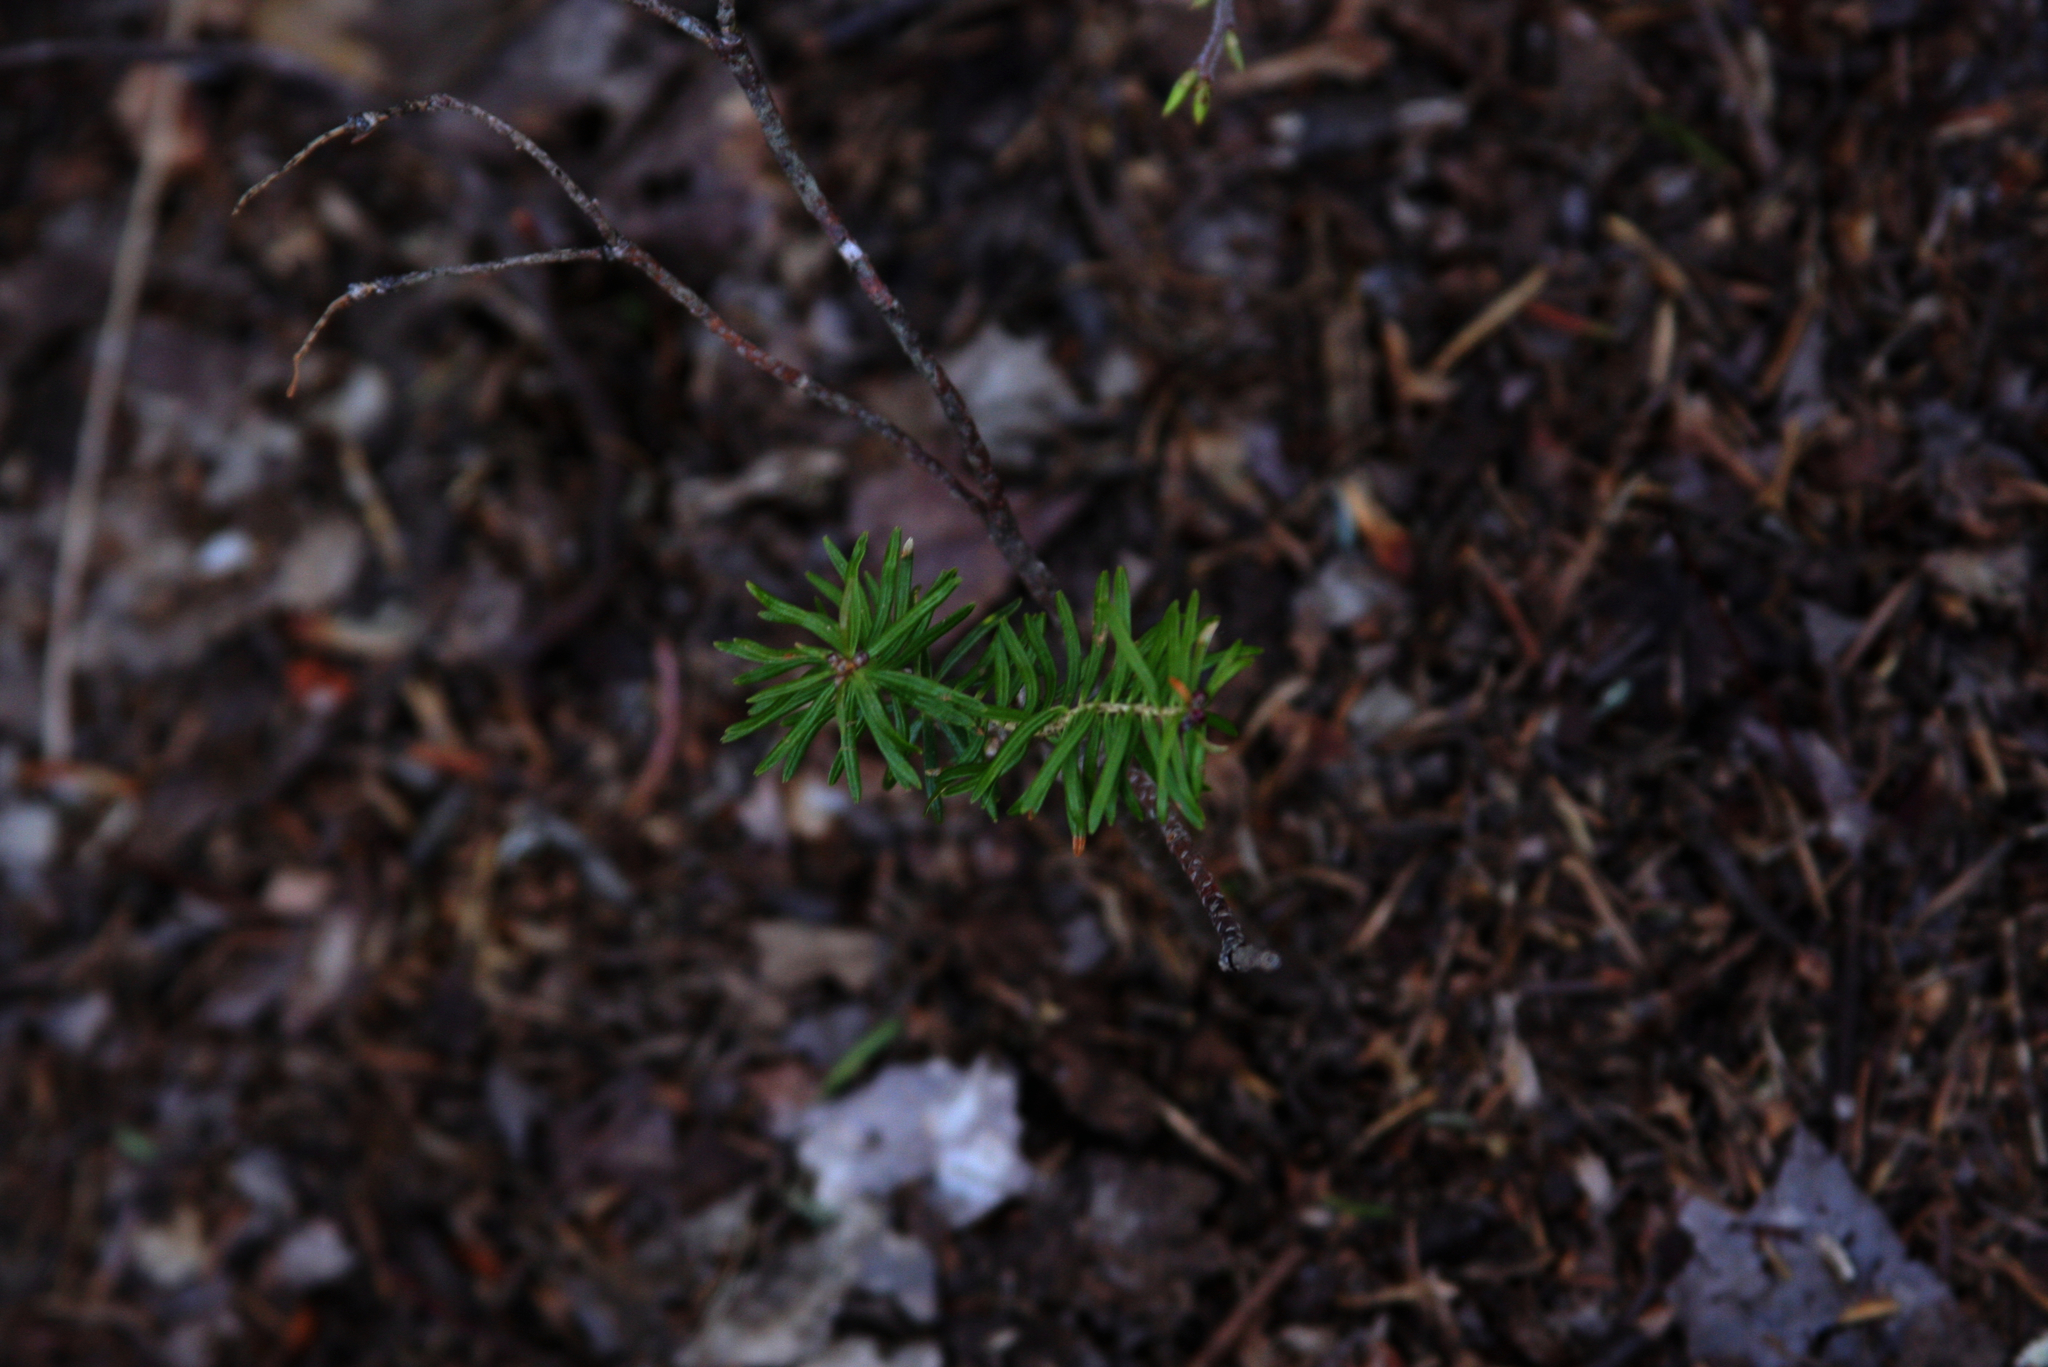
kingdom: Plantae
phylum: Tracheophyta
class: Pinopsida
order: Pinales
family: Pinaceae
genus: Tsuga
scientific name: Tsuga canadensis
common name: Eastern hemlock
